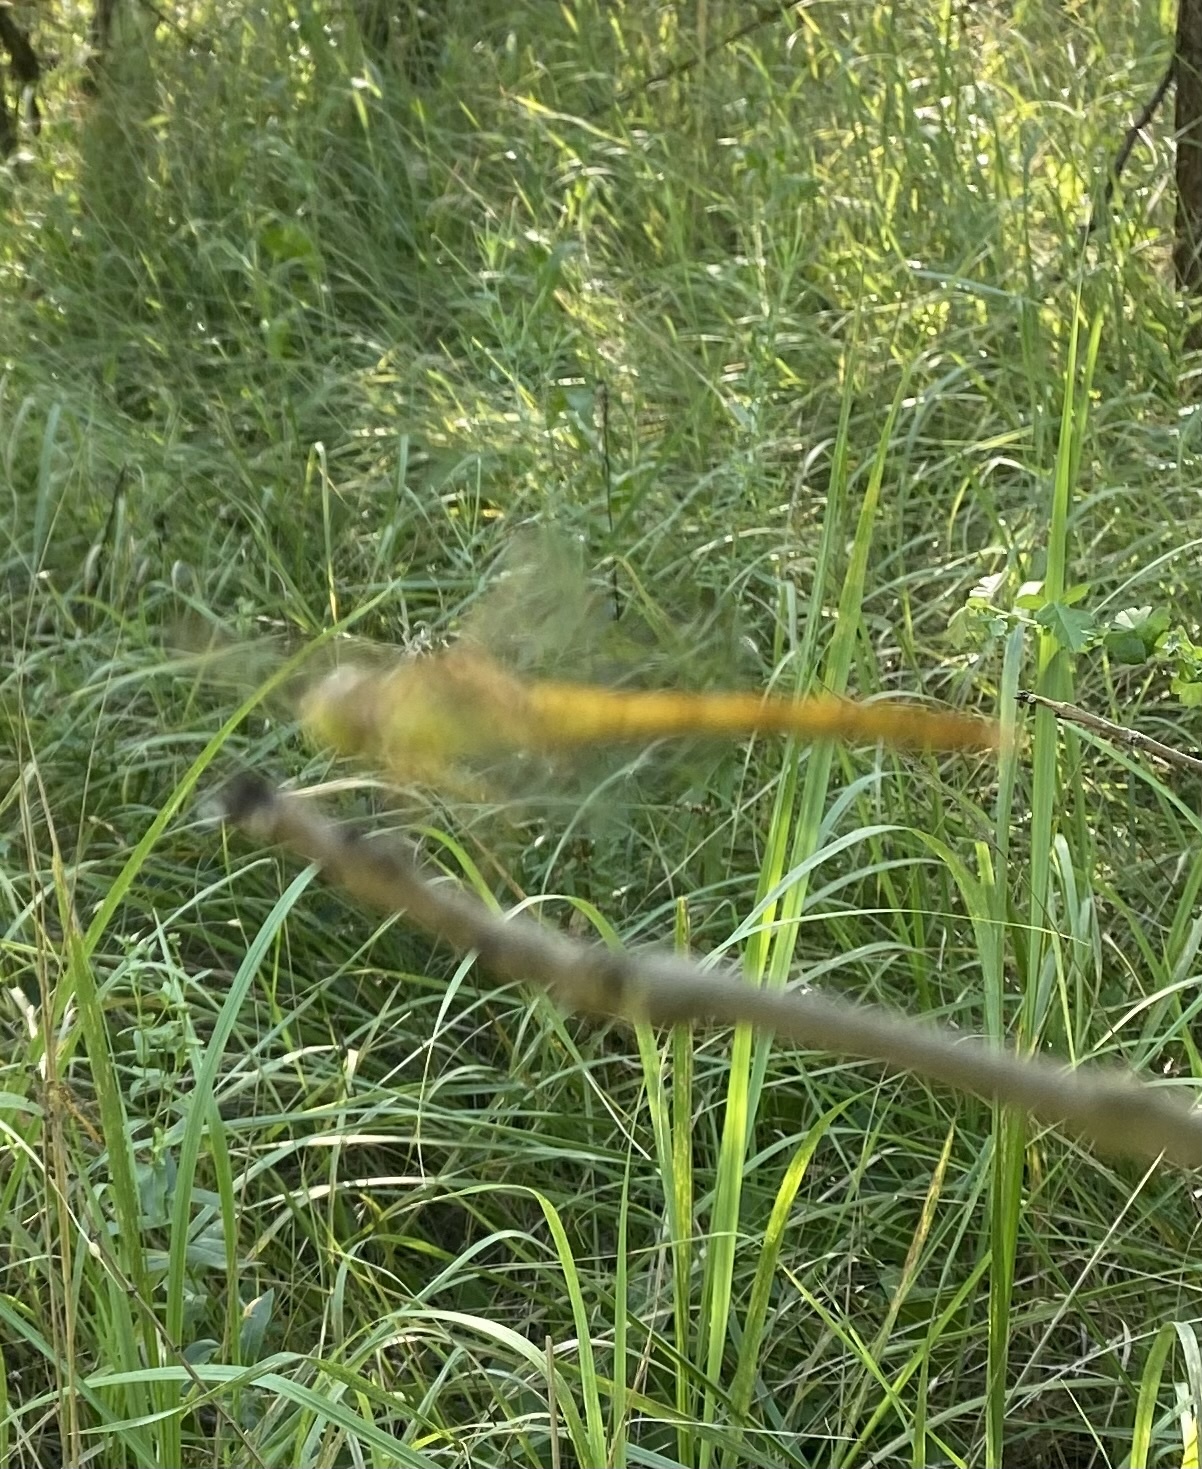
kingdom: Animalia
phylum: Arthropoda
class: Insecta
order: Odonata
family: Libellulidae
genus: Sympetrum
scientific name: Sympetrum meridionale
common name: Southern darter
